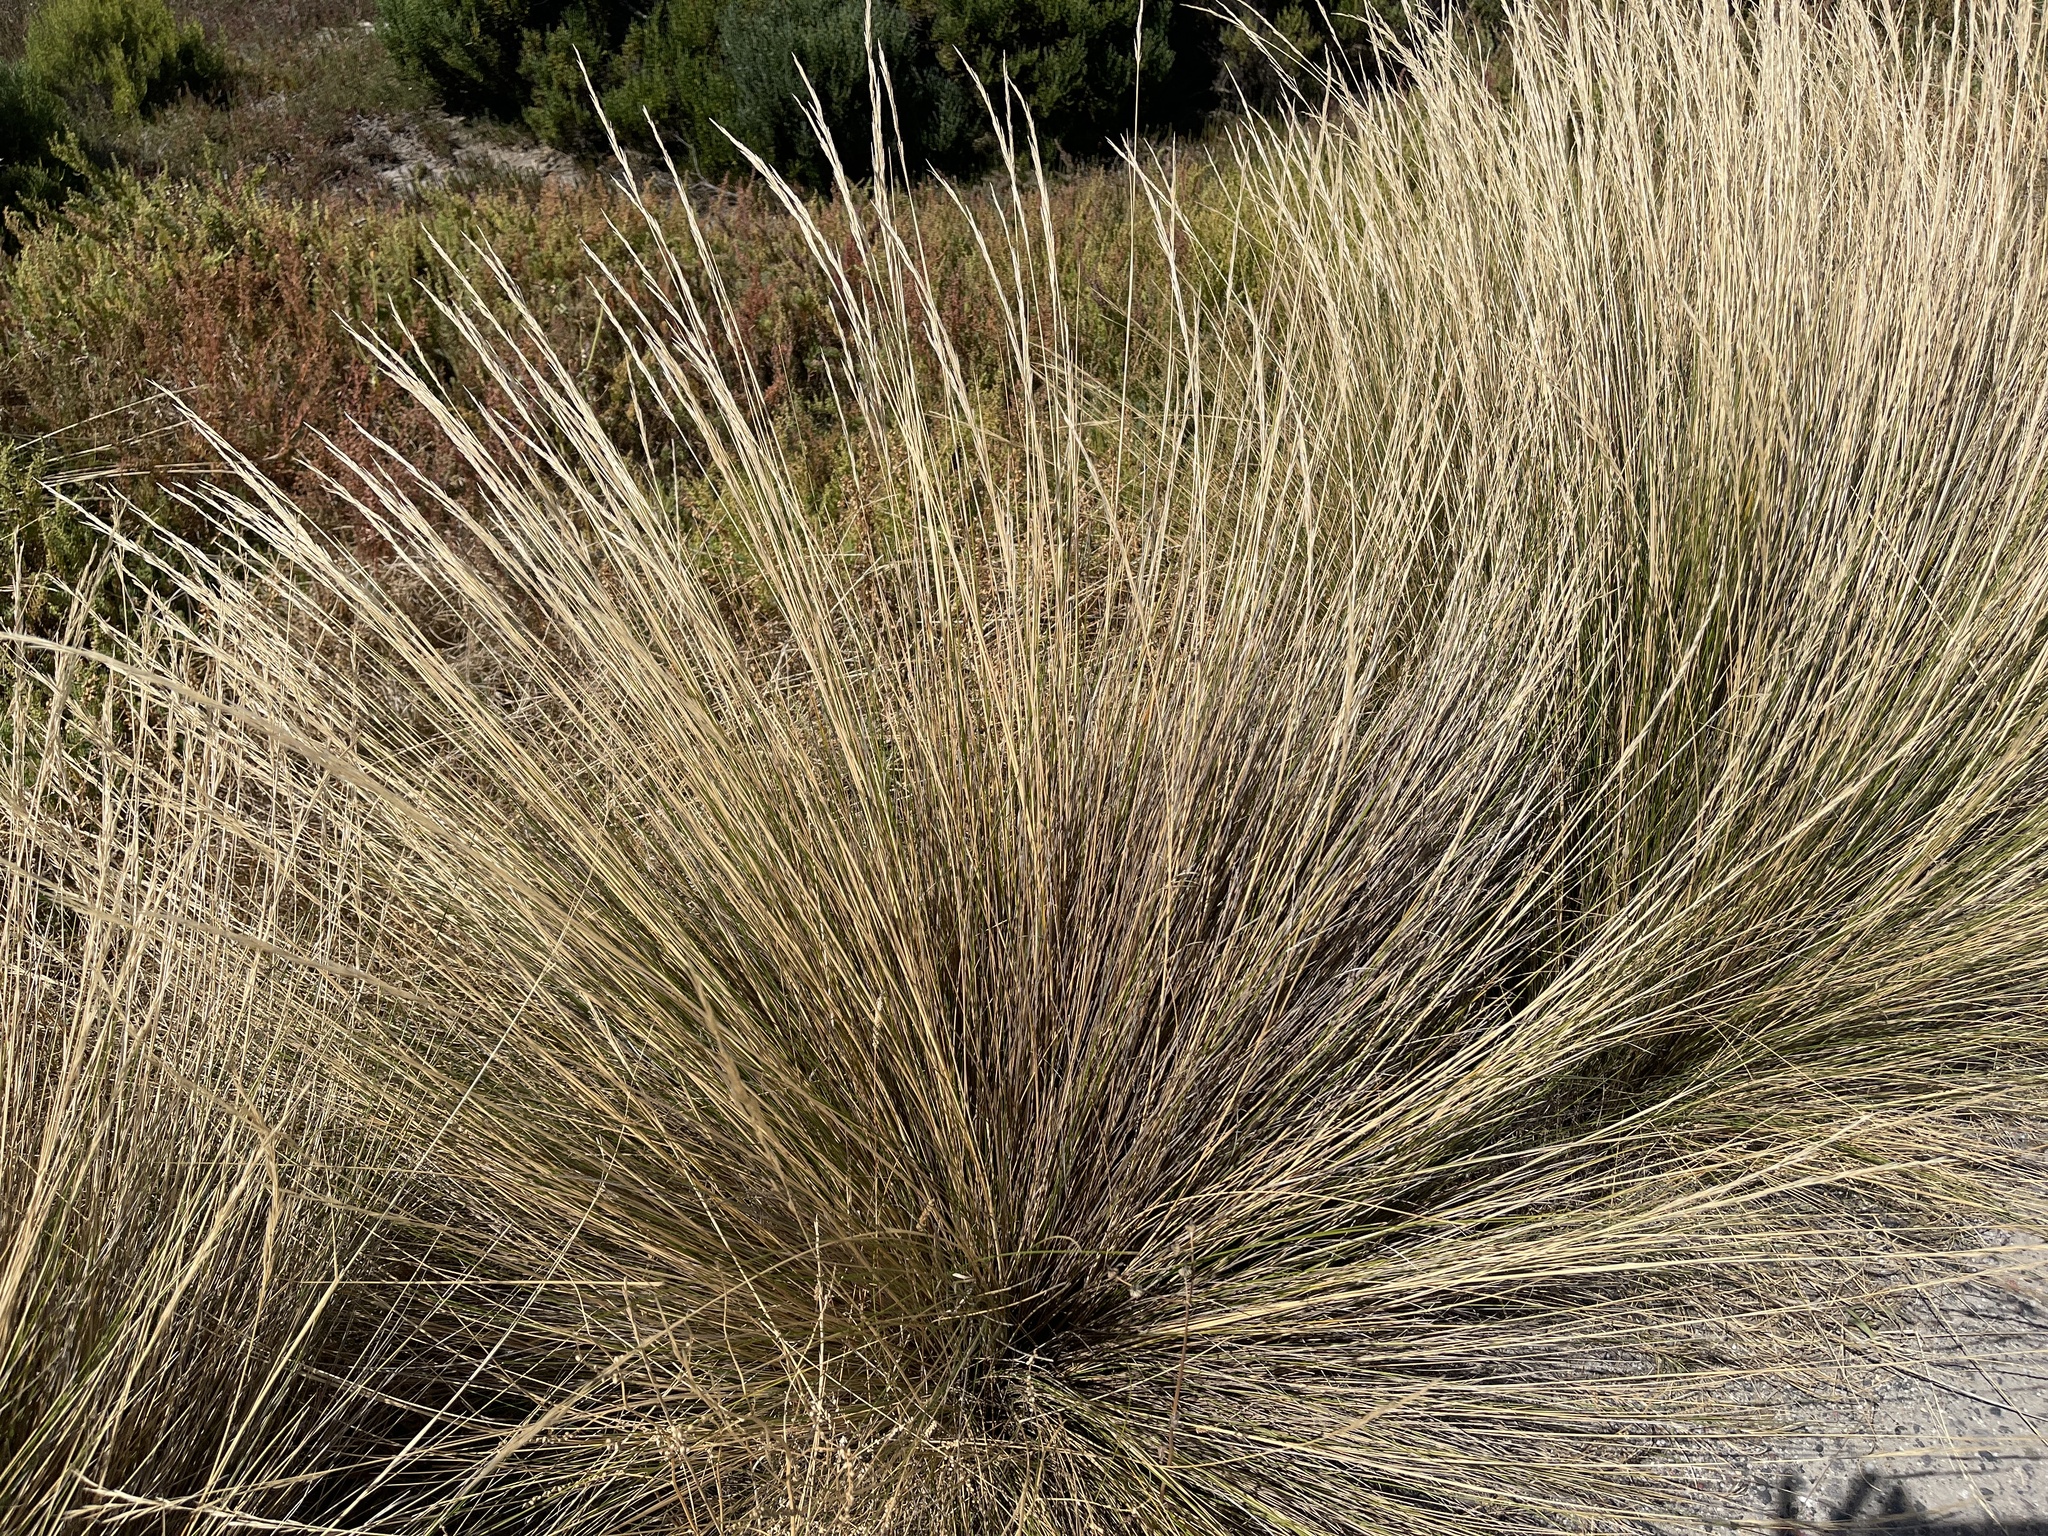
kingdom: Plantae
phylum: Tracheophyta
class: Liliopsida
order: Poales
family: Poaceae
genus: Austrostipa
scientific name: Austrostipa stipoides
